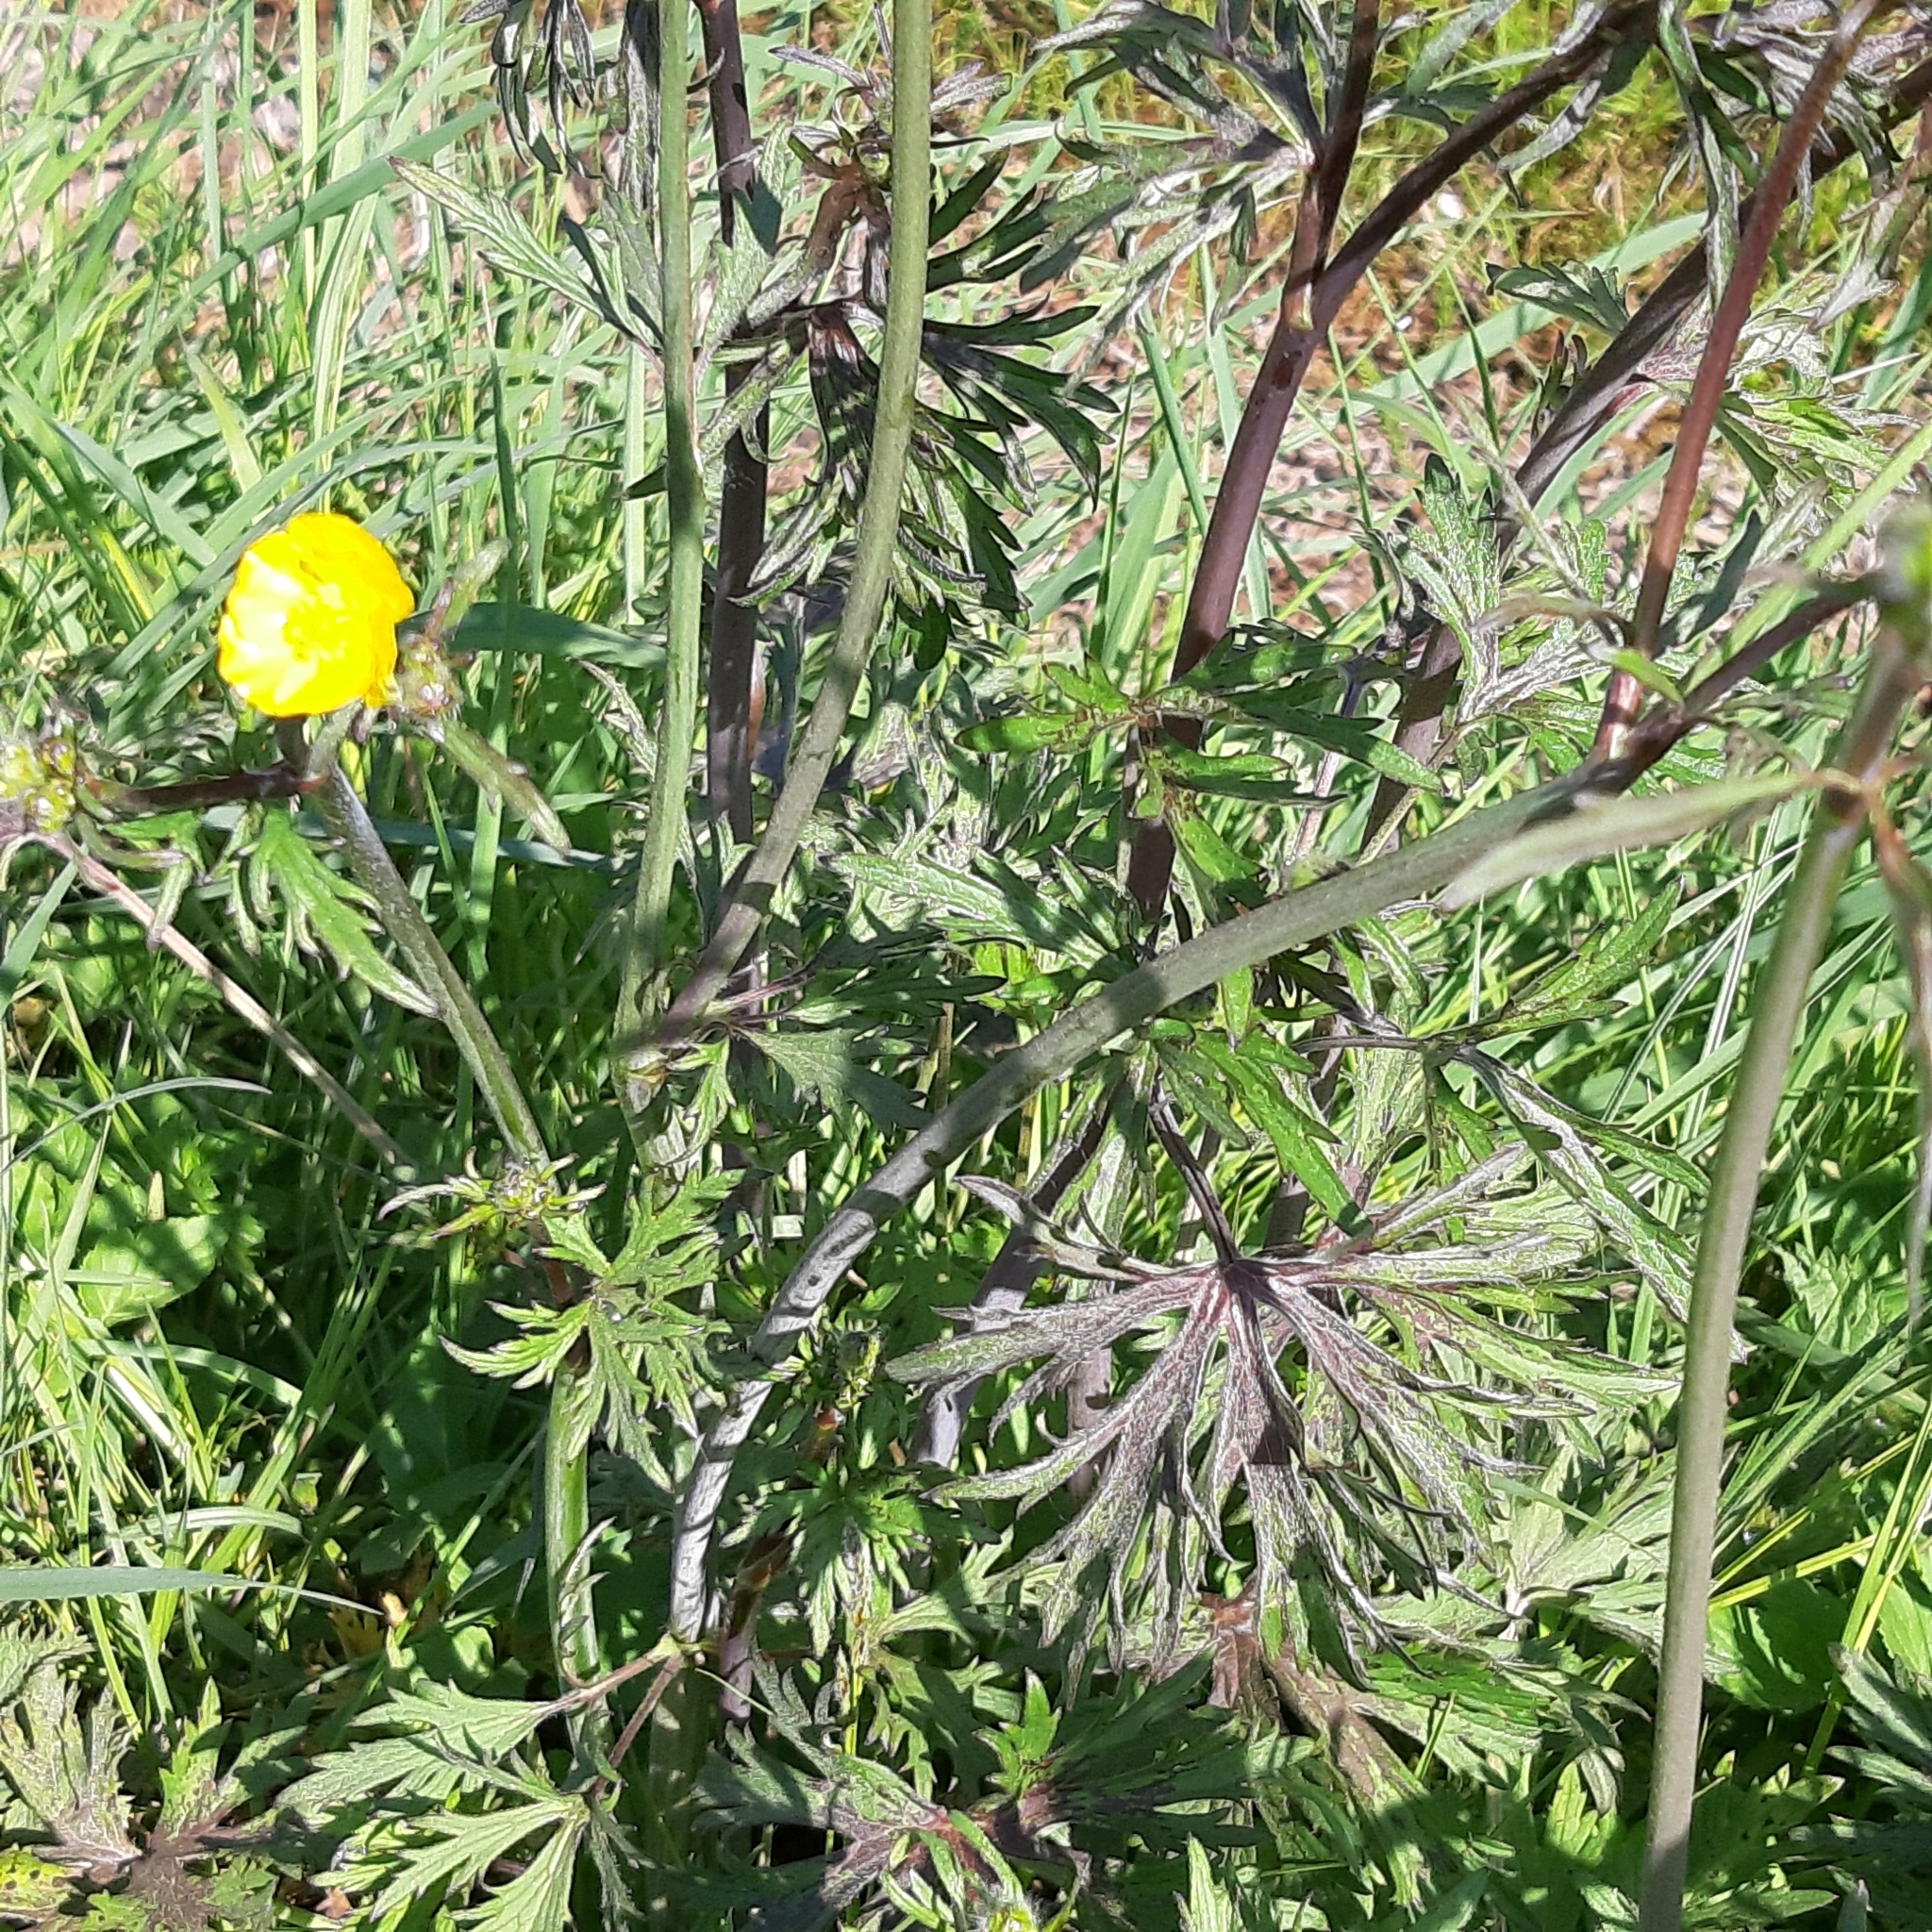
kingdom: Plantae
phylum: Tracheophyta
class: Magnoliopsida
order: Ranunculales
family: Ranunculaceae
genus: Ranunculus
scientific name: Ranunculus acris
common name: Meadow buttercup
